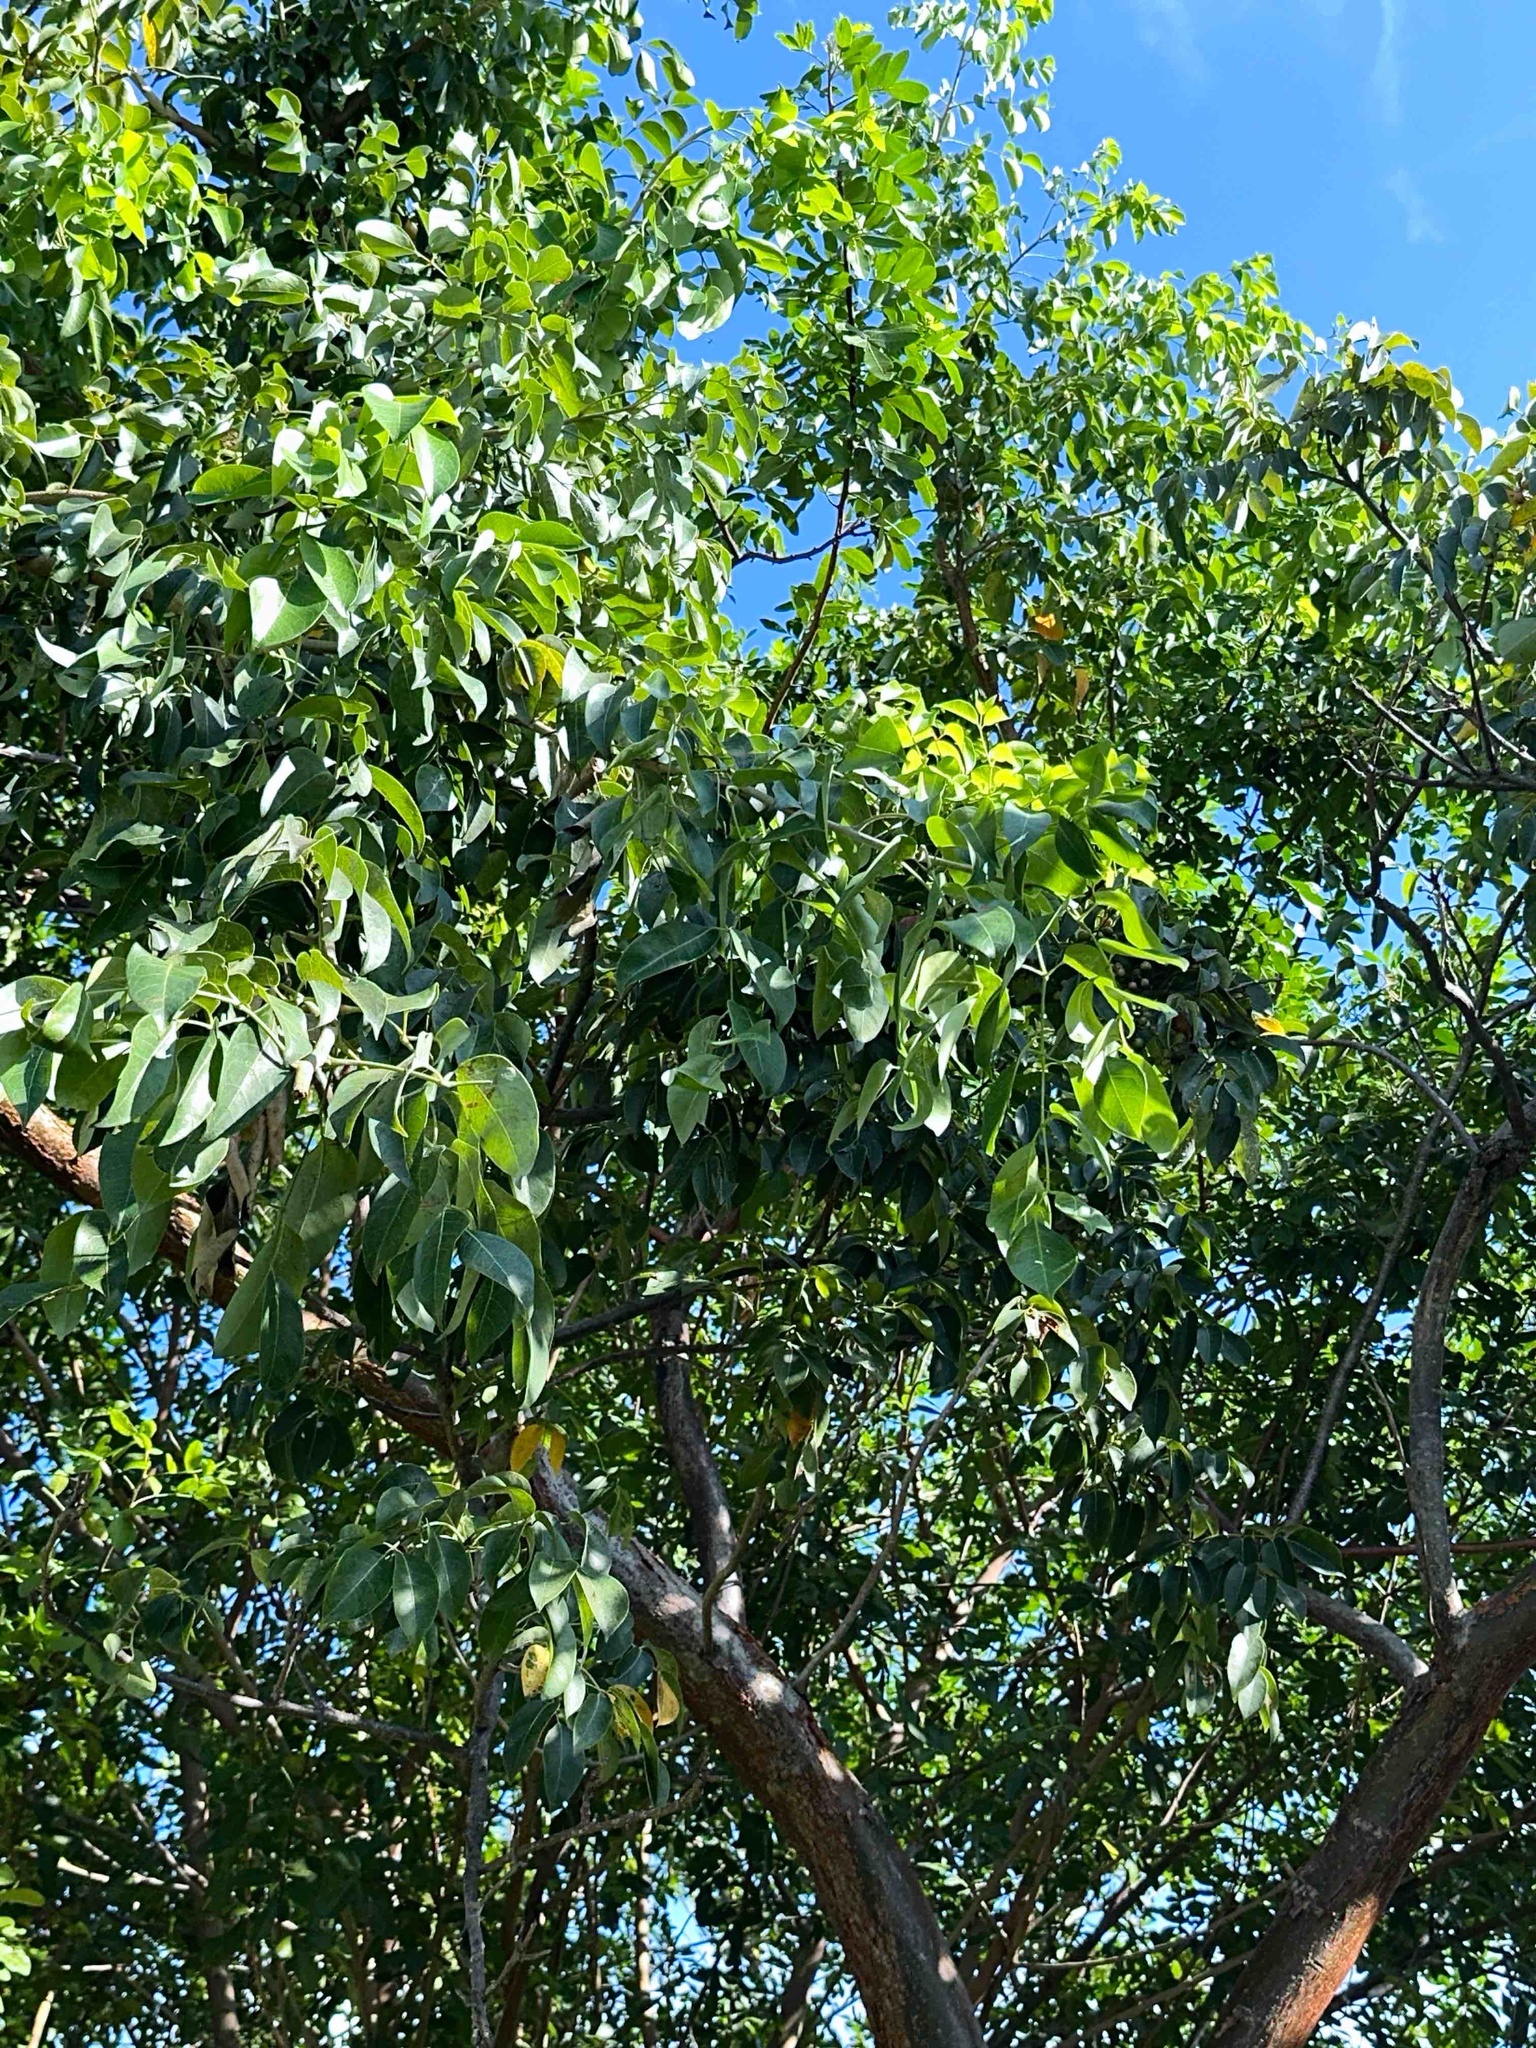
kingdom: Plantae
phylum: Tracheophyta
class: Magnoliopsida
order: Sapindales
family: Burseraceae
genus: Bursera
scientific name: Bursera simaruba
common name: Turpentine tree
